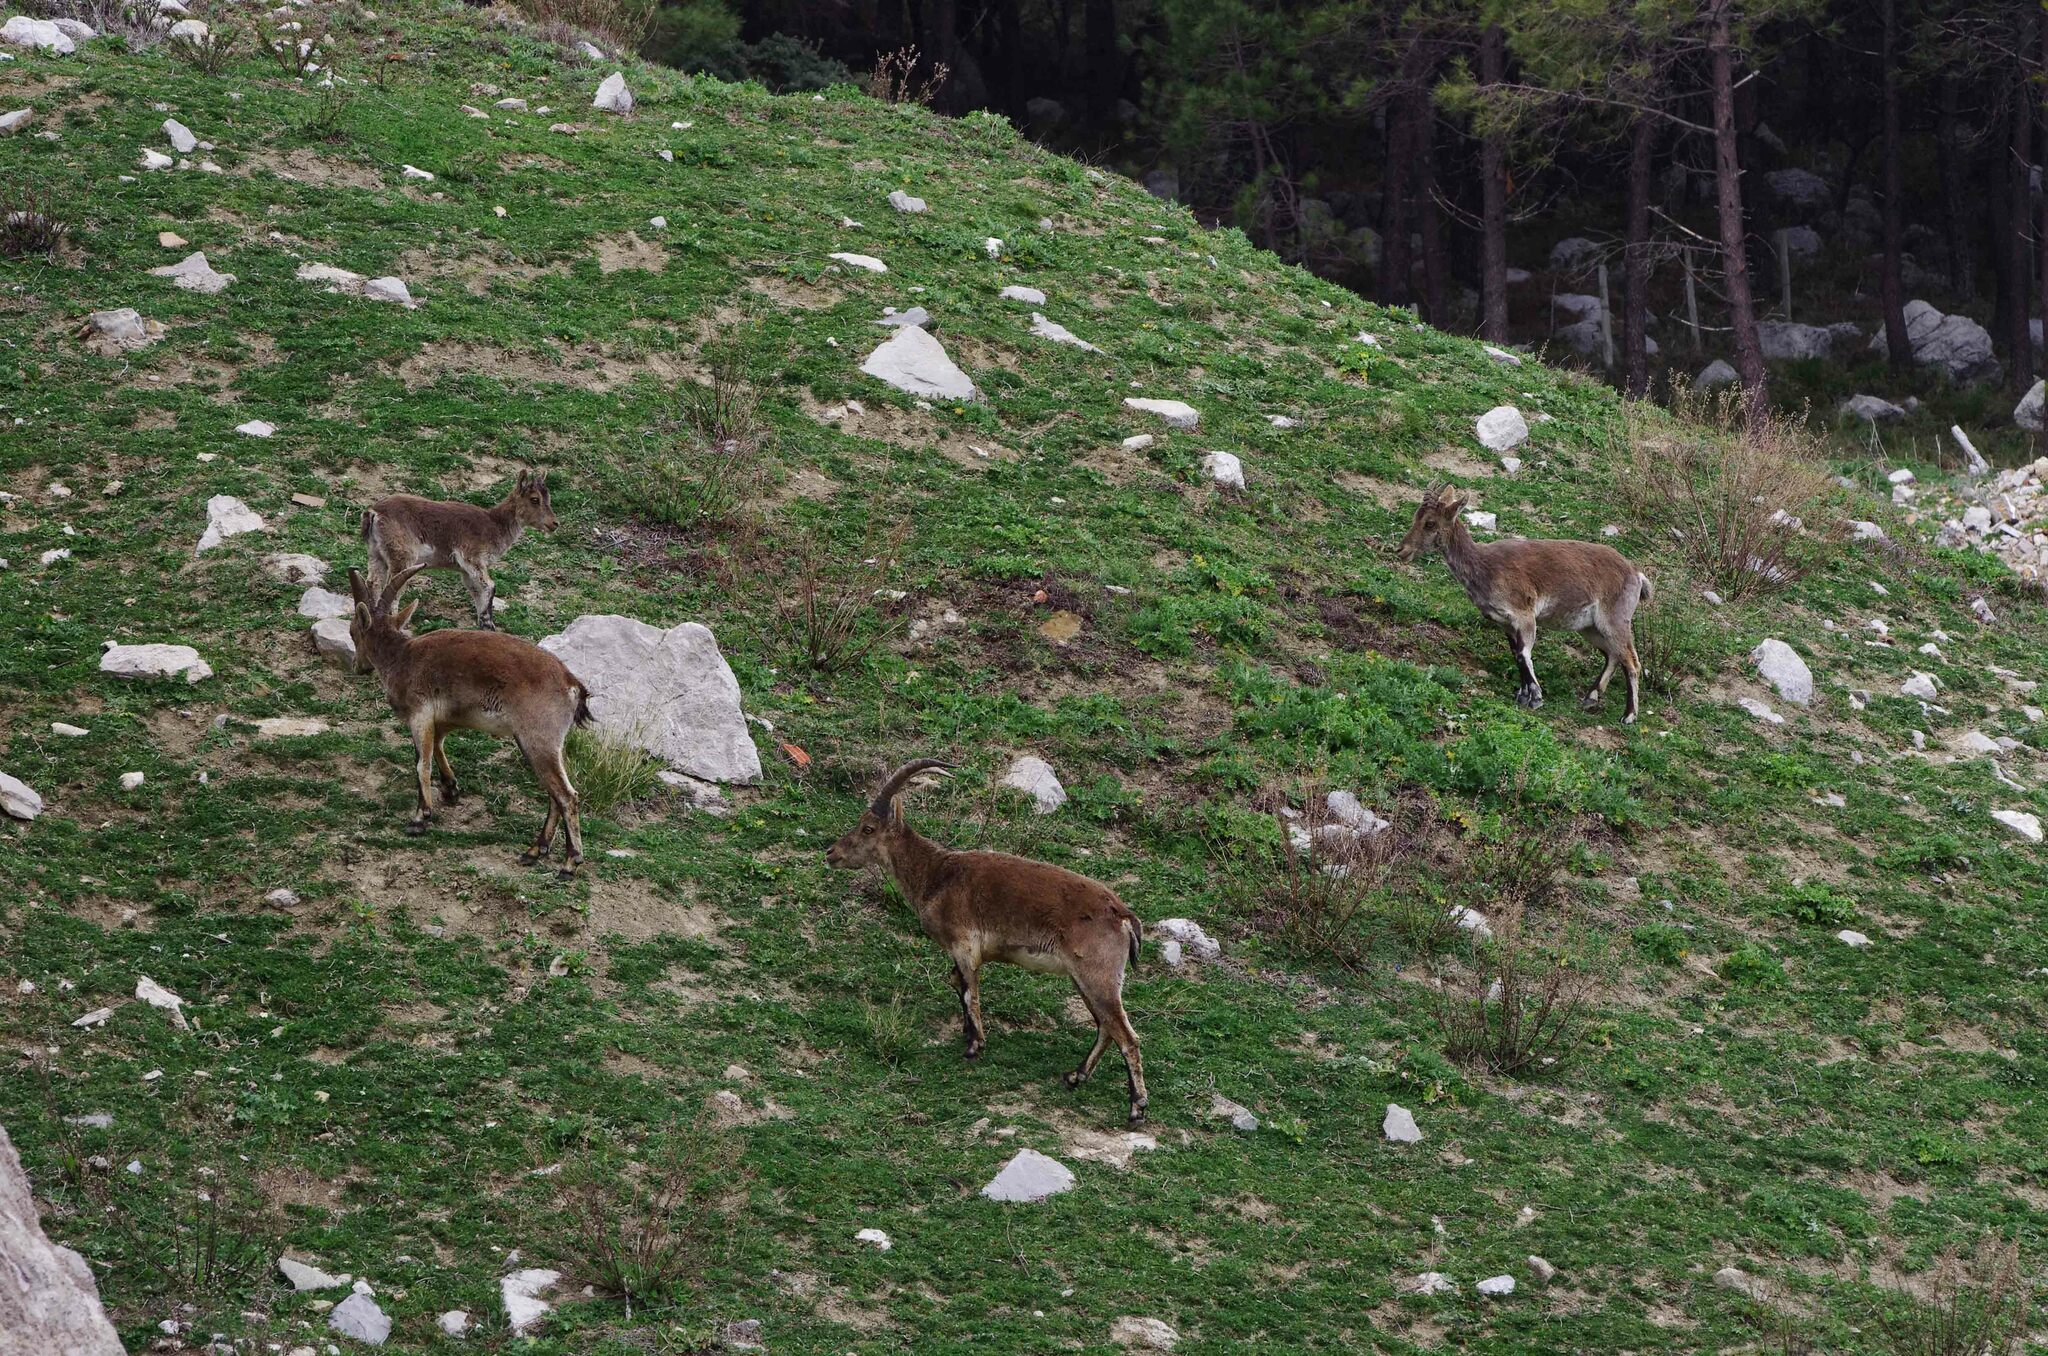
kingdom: Animalia
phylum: Chordata
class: Mammalia
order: Artiodactyla
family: Bovidae
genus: Capra
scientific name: Capra pyrenaica
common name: Spanish ibex
